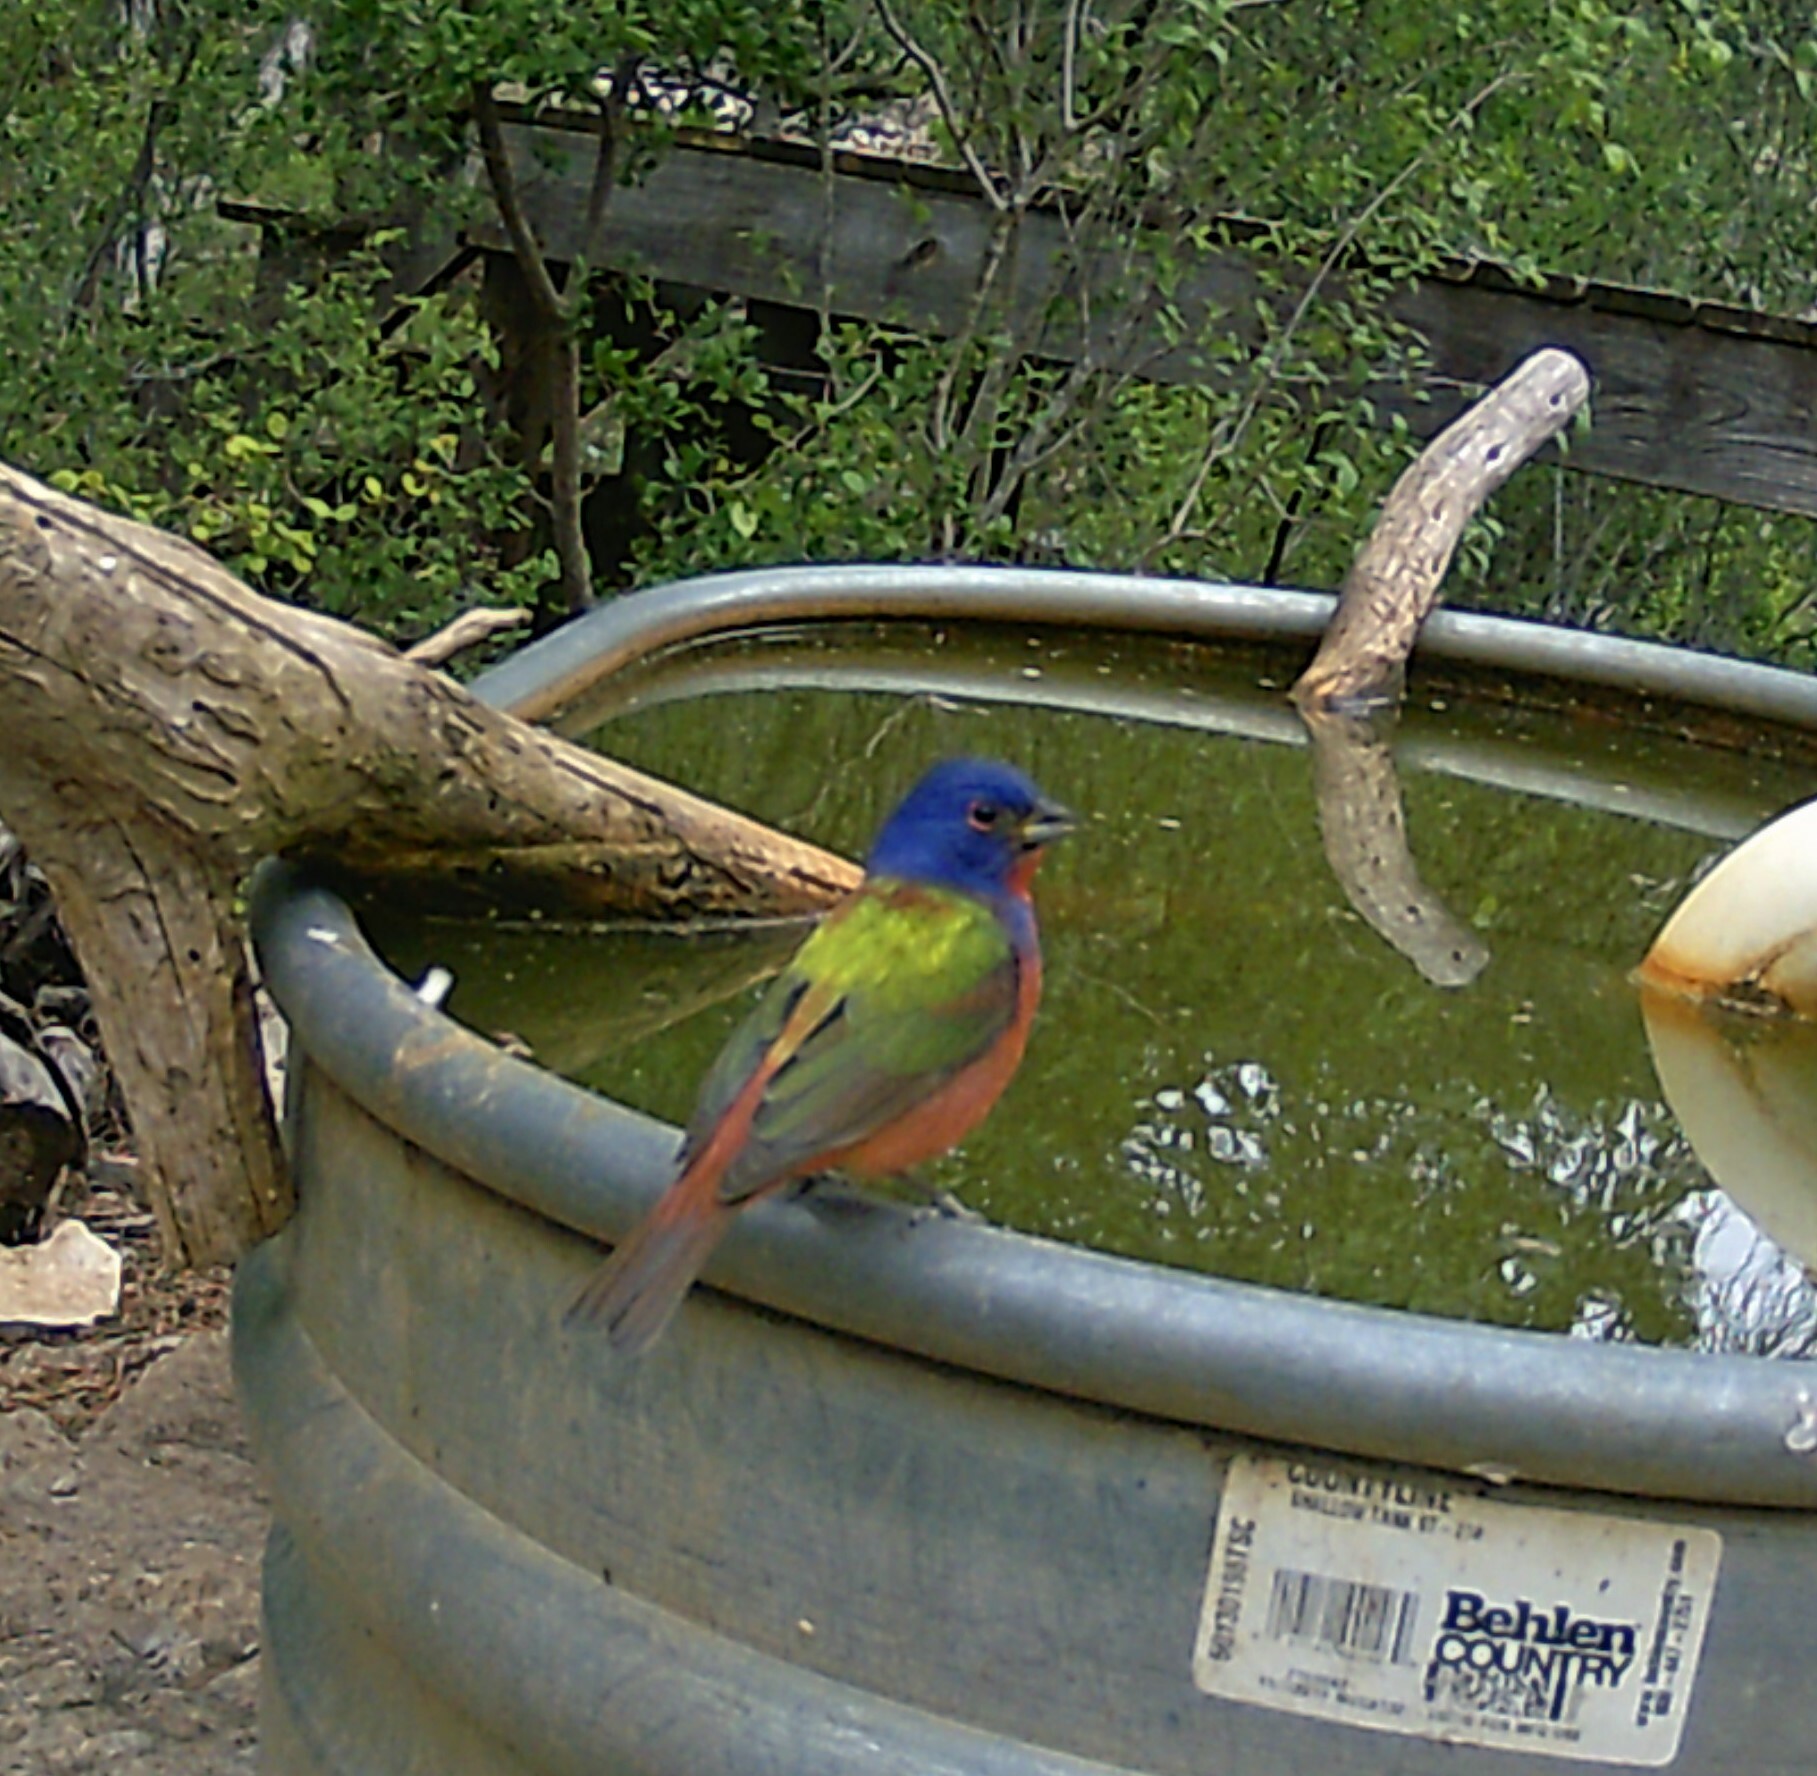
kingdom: Animalia
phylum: Chordata
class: Aves
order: Passeriformes
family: Cardinalidae
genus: Passerina
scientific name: Passerina ciris
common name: Painted bunting
